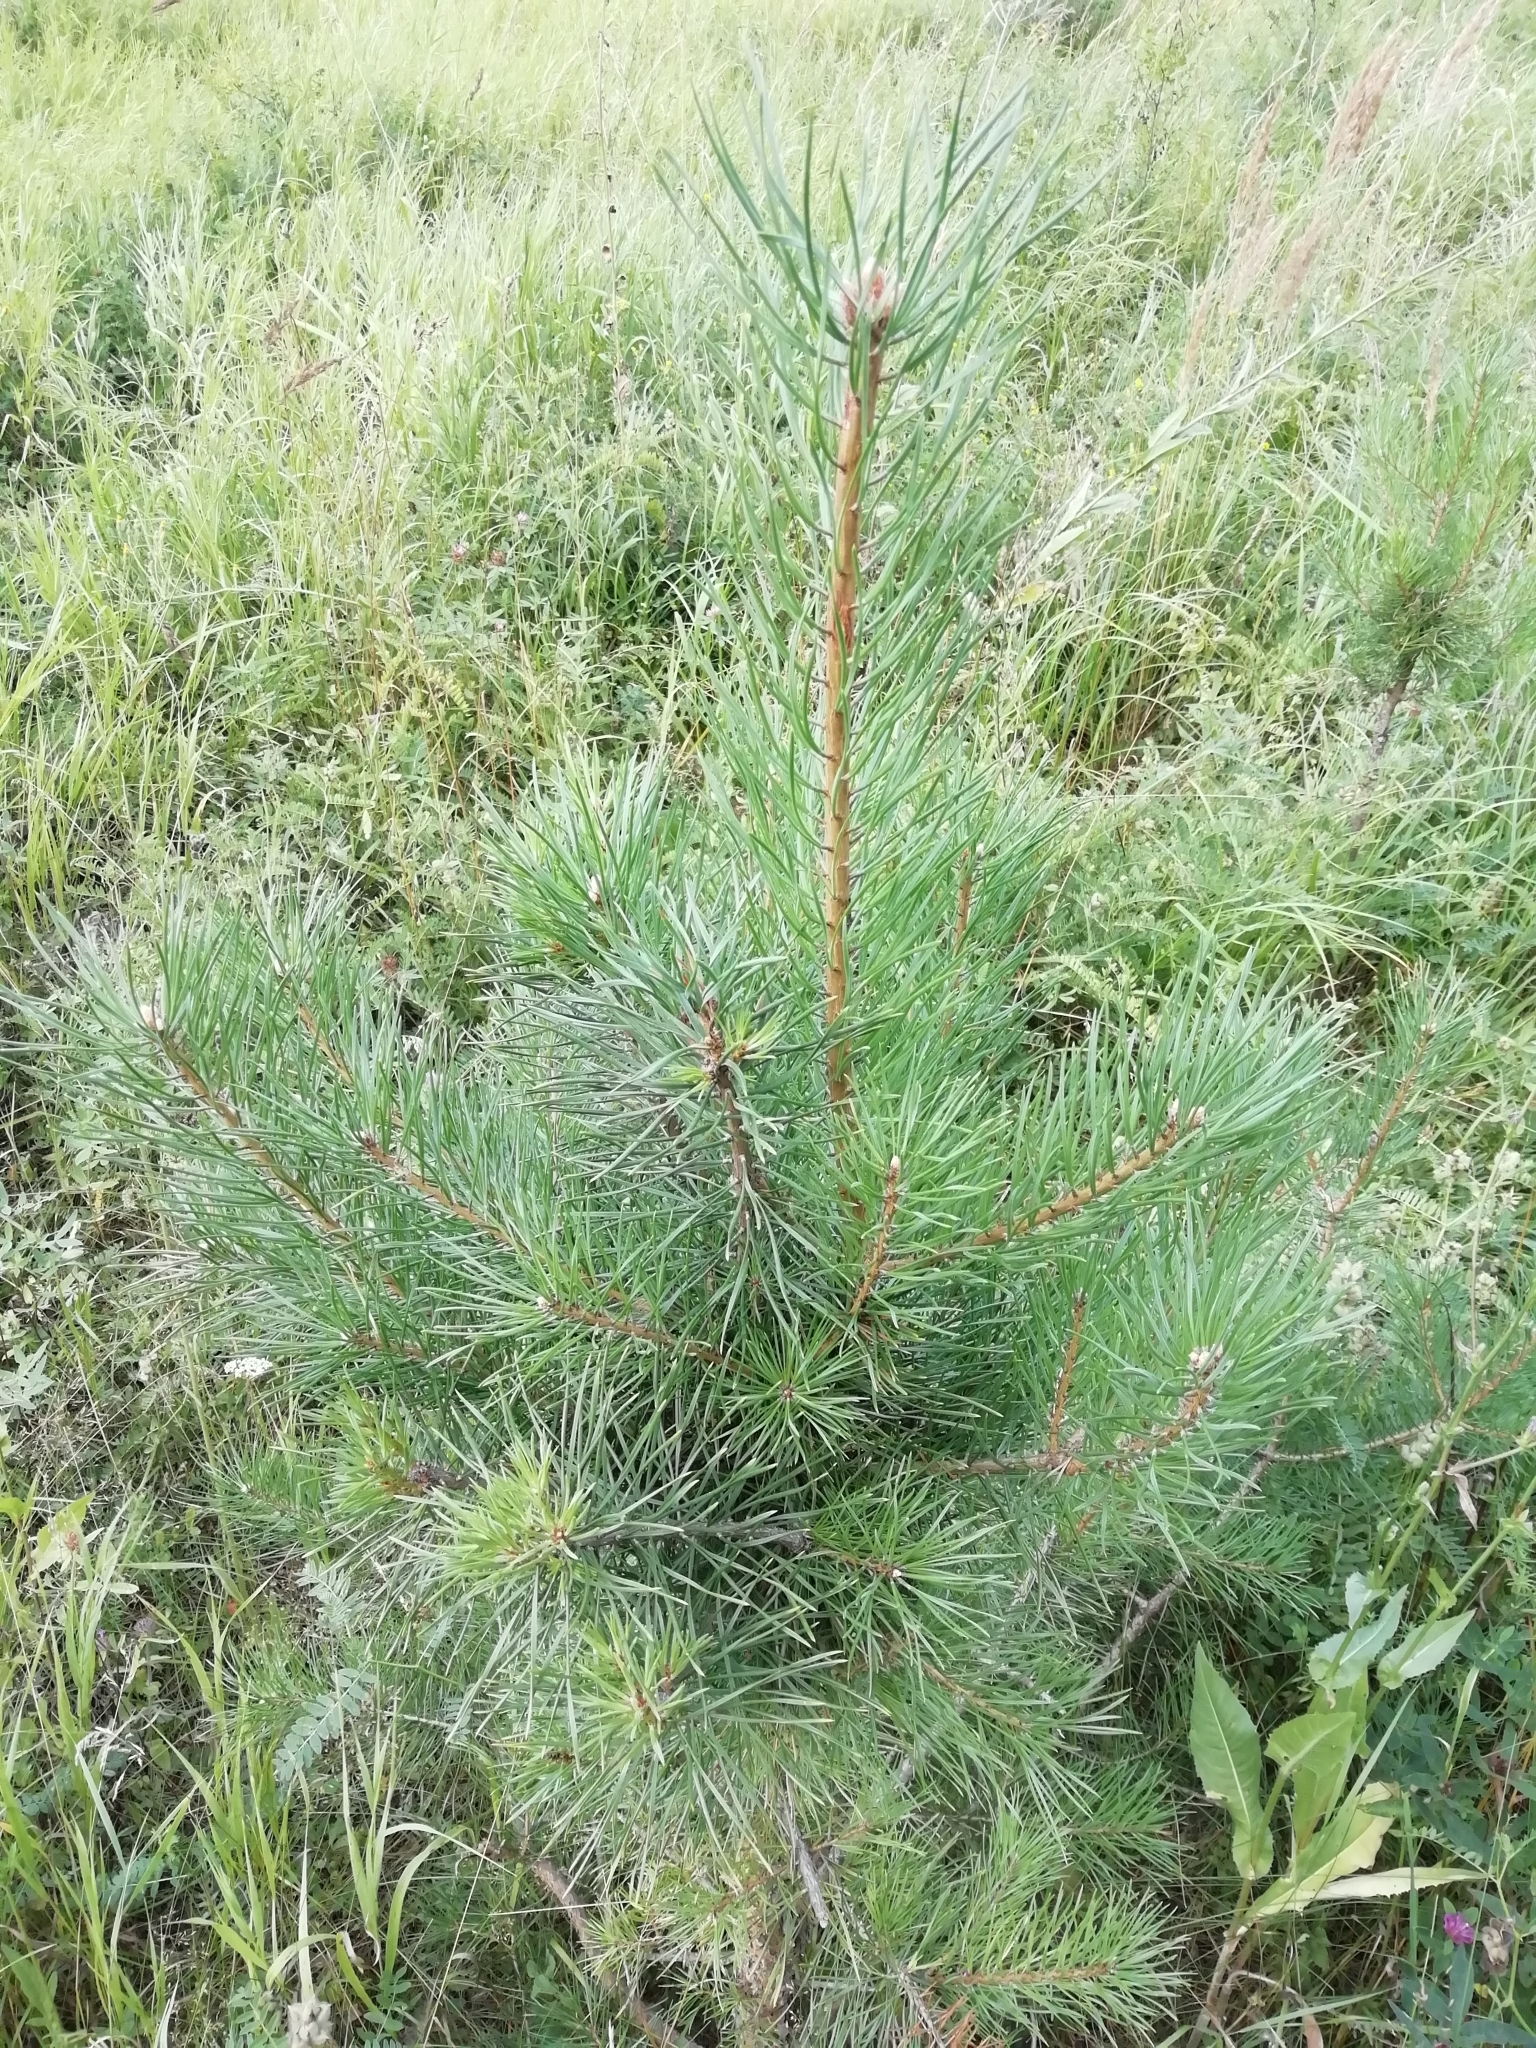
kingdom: Plantae
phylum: Tracheophyta
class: Pinopsida
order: Pinales
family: Pinaceae
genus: Pinus
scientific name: Pinus sylvestris
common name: Scots pine
